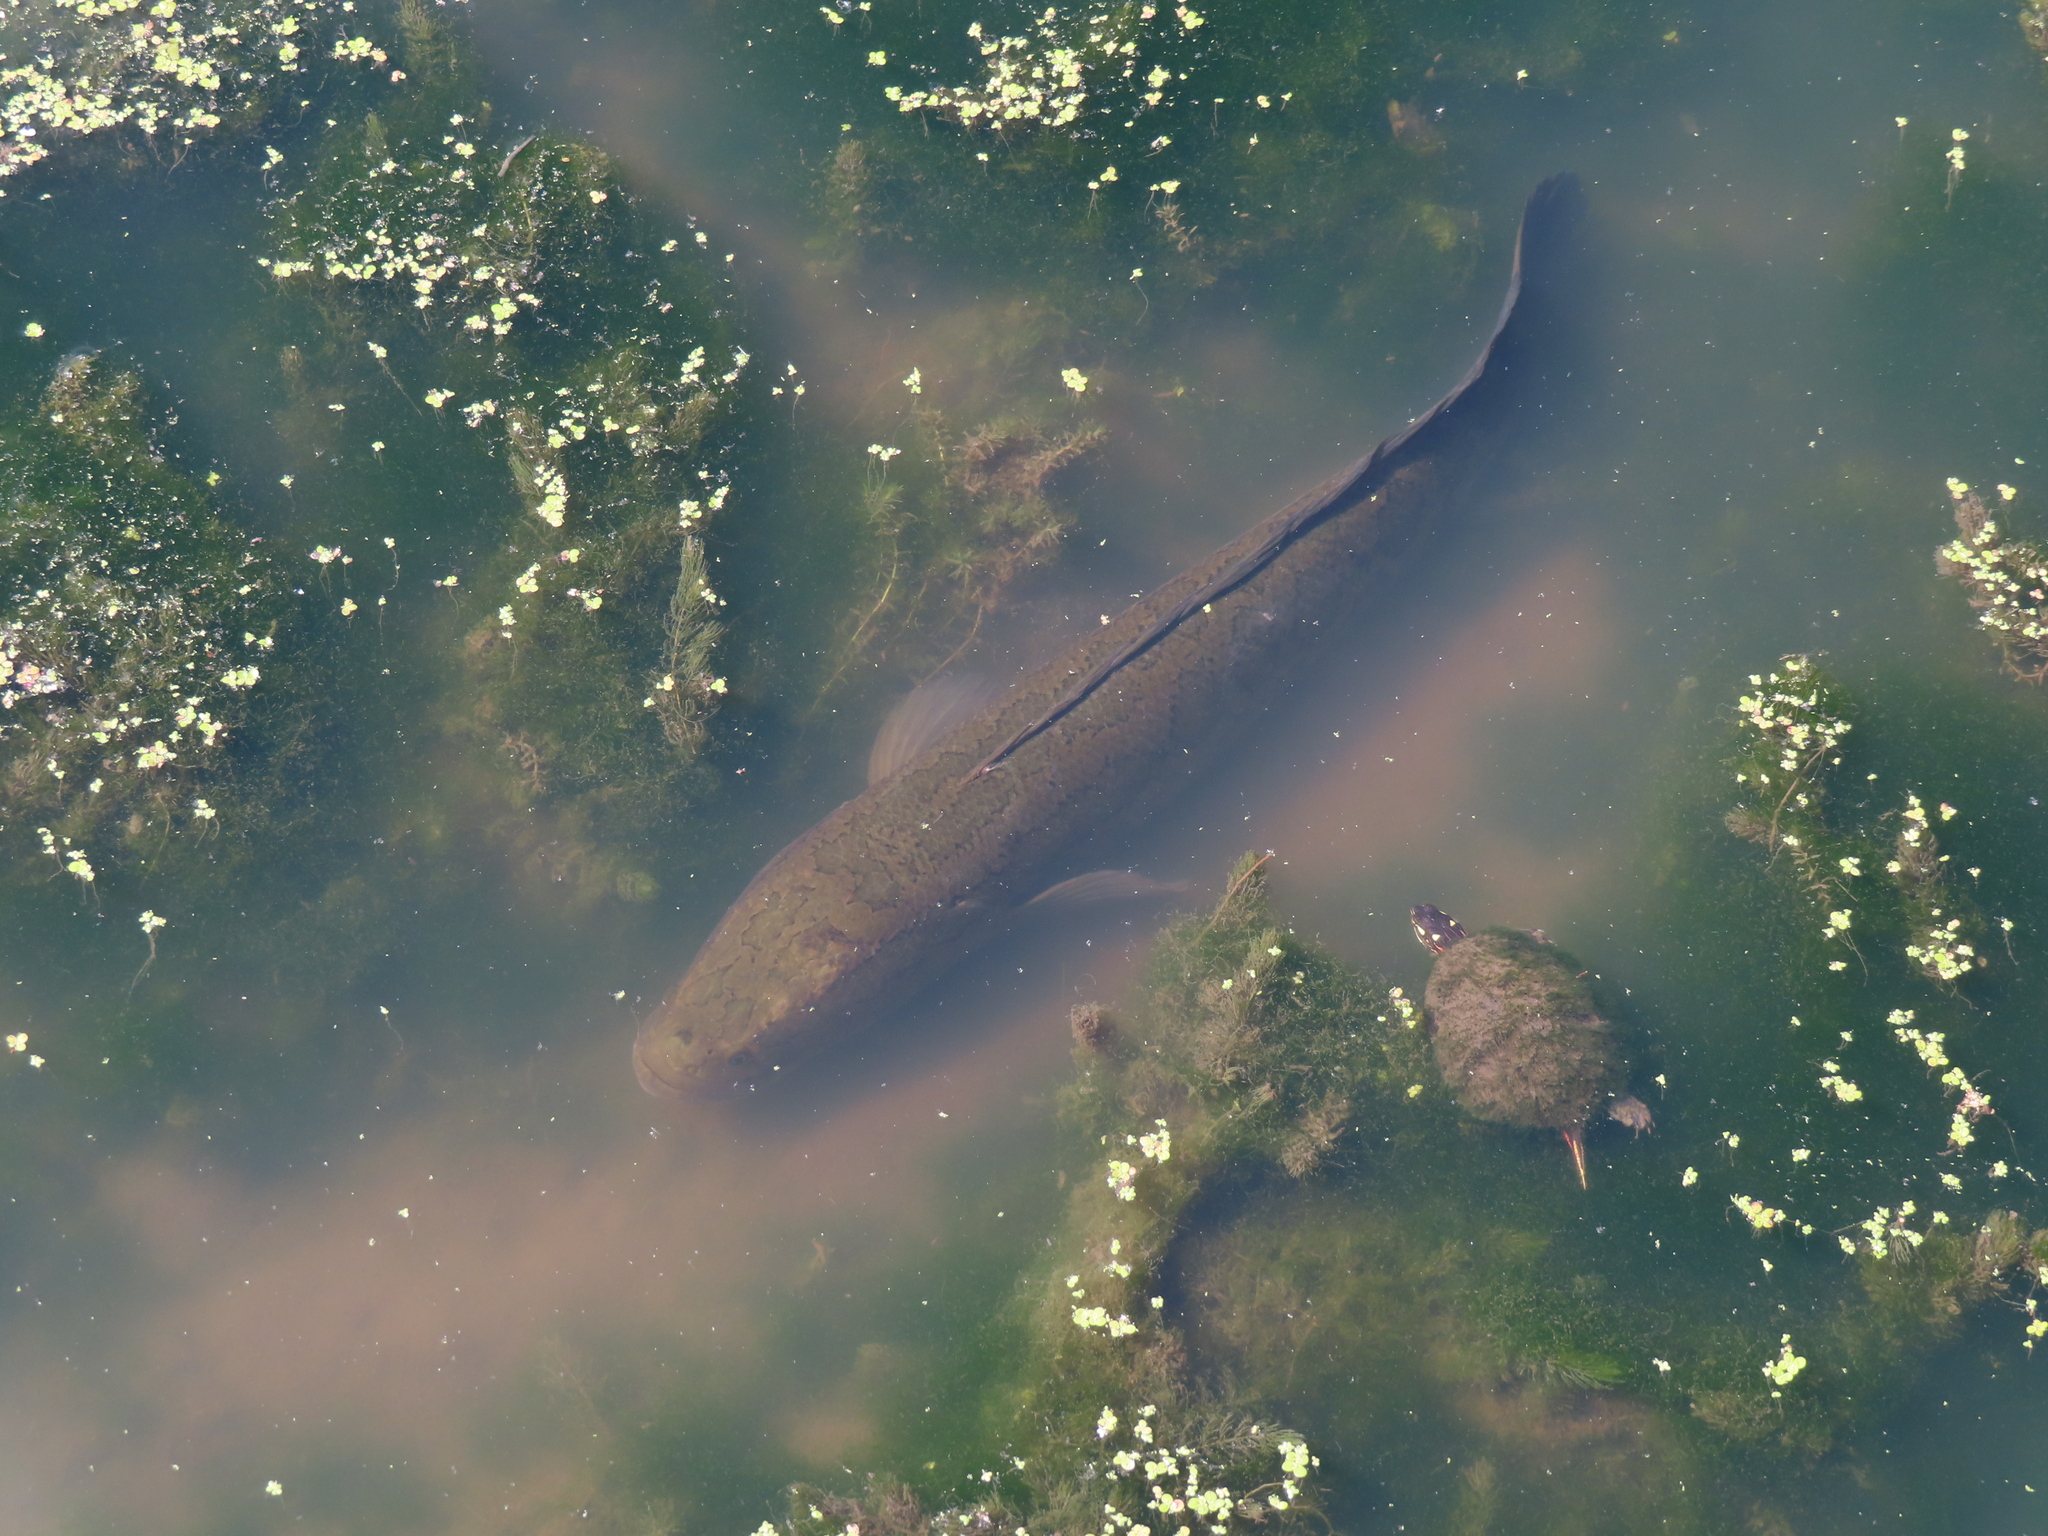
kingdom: Animalia
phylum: Chordata
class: Testudines
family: Emydidae
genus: Chrysemys
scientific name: Chrysemys picta
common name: Painted turtle
